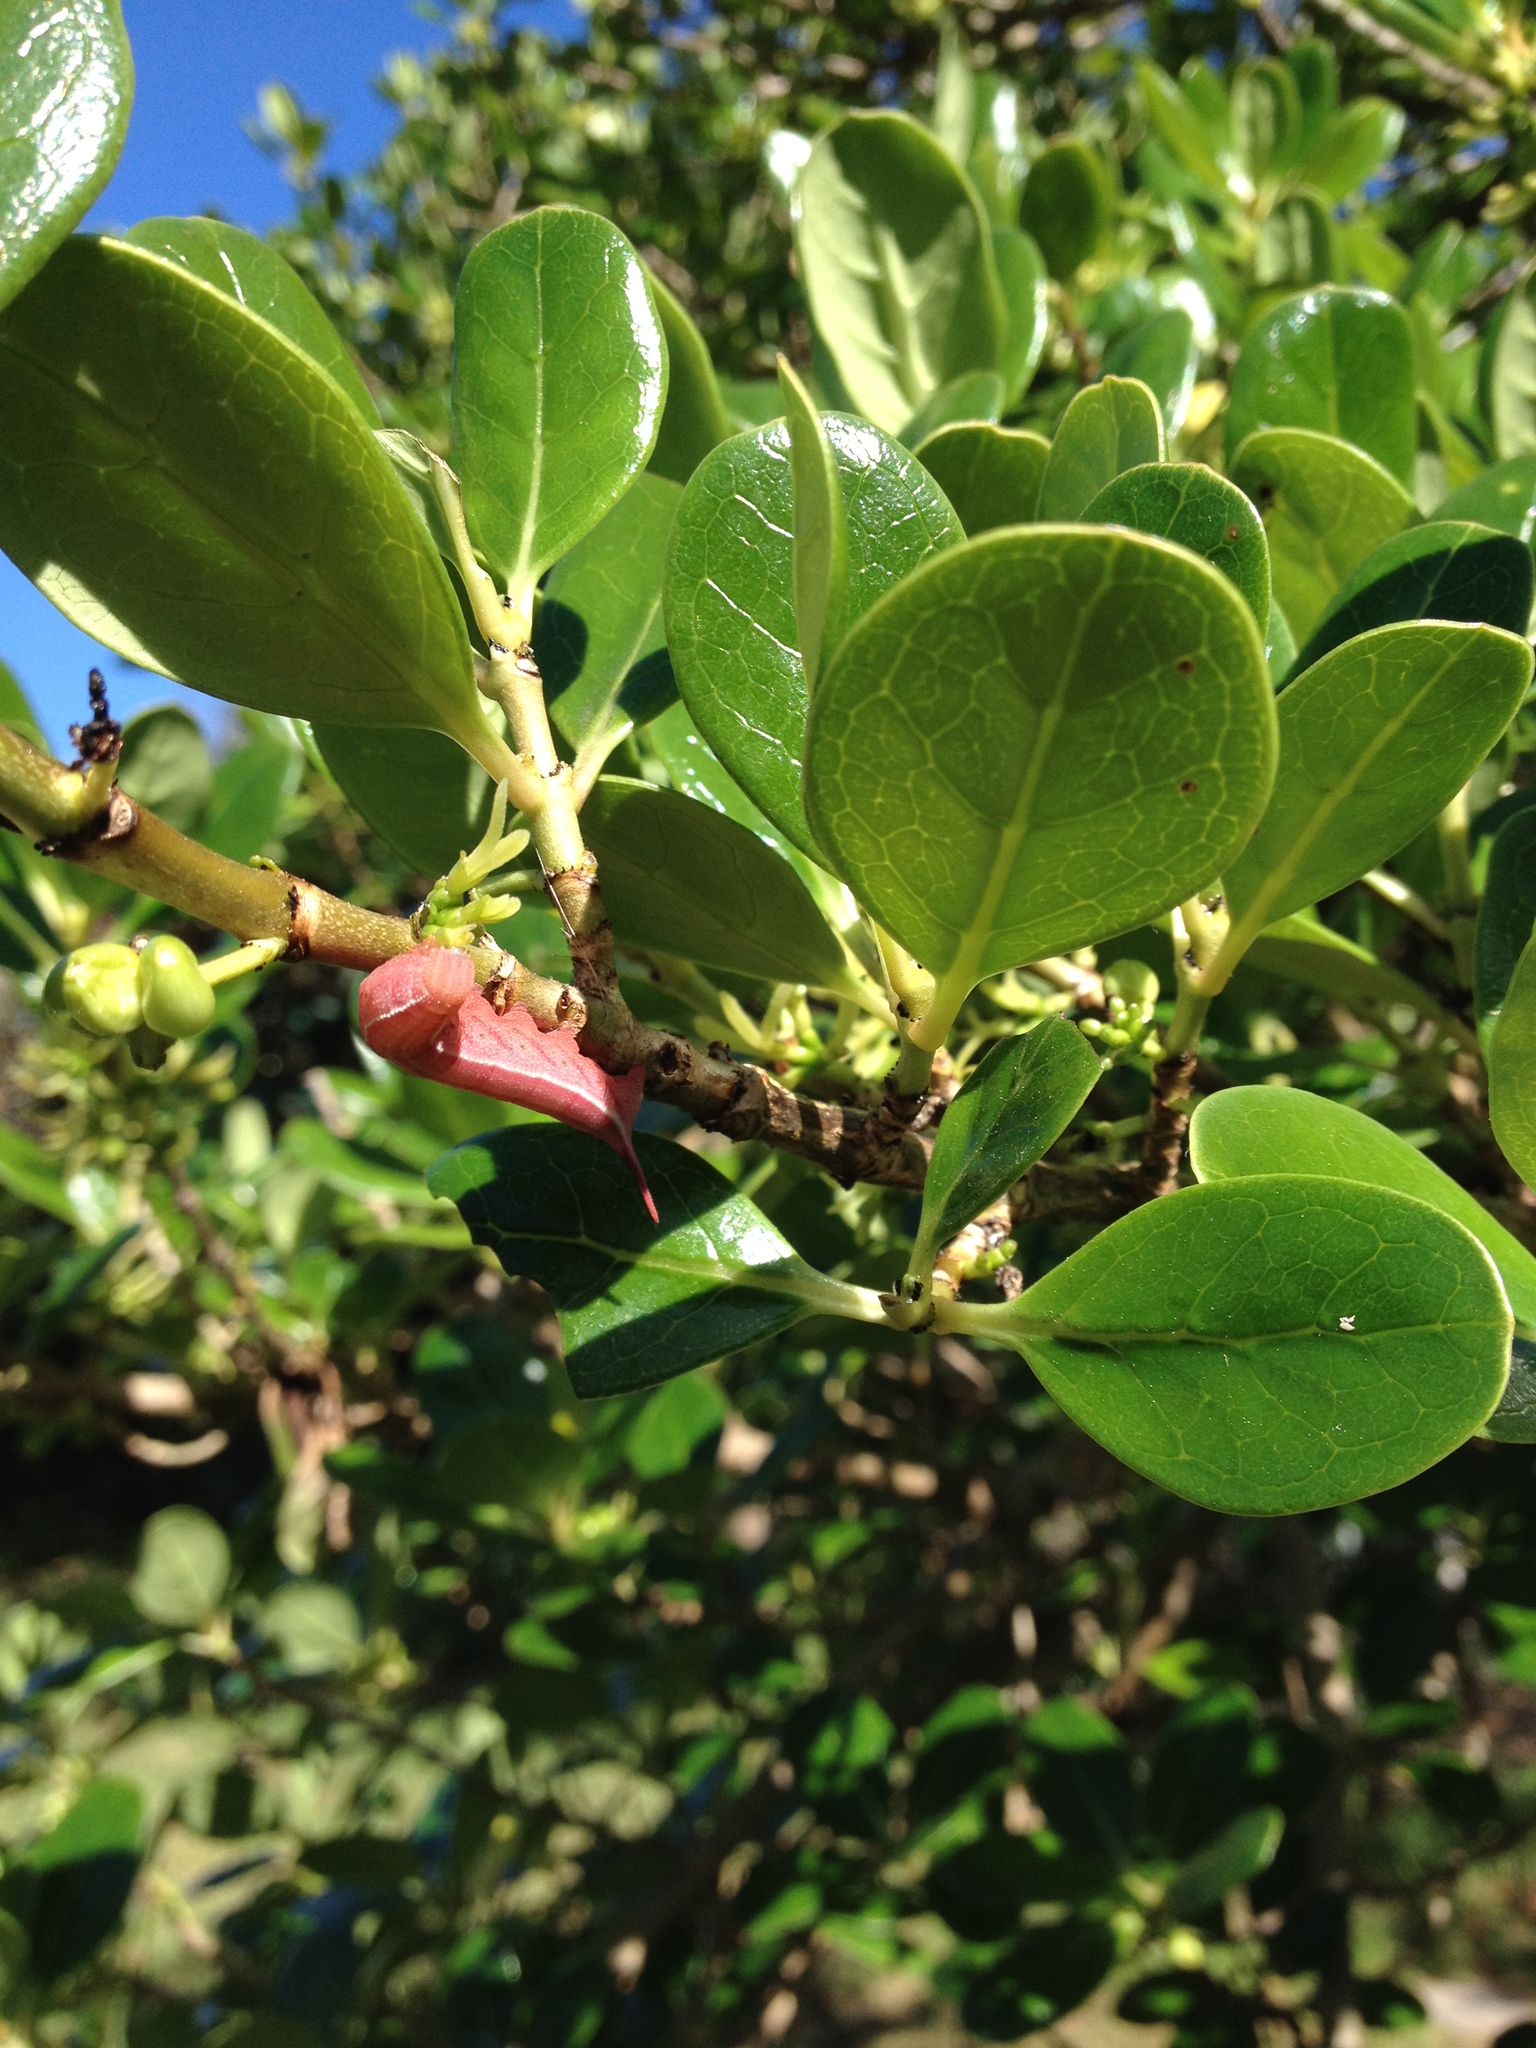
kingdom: Animalia
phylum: Arthropoda
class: Insecta
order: Lepidoptera
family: Sphingidae
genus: Macroglossum
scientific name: Macroglossum trochilus
